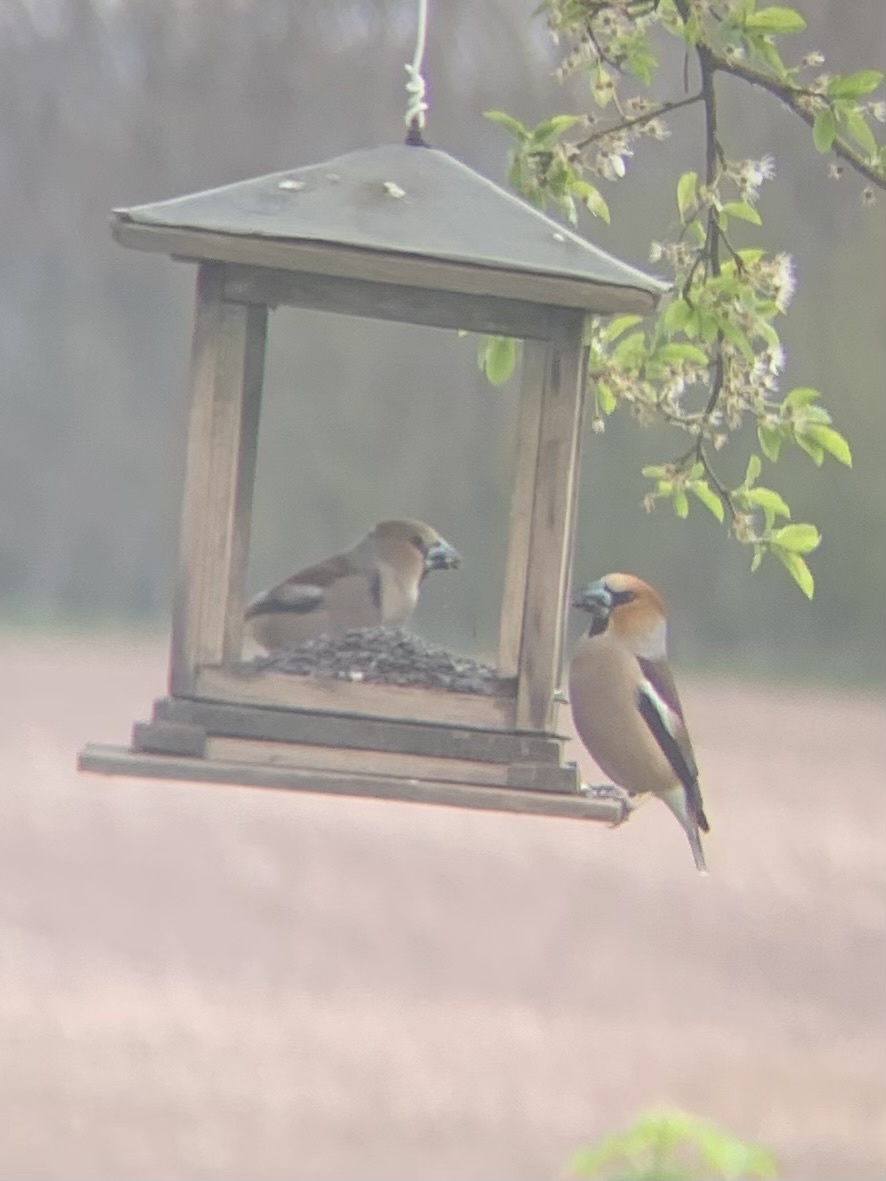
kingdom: Animalia
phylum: Chordata
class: Aves
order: Passeriformes
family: Fringillidae
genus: Coccothraustes
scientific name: Coccothraustes coccothraustes
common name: Hawfinch
